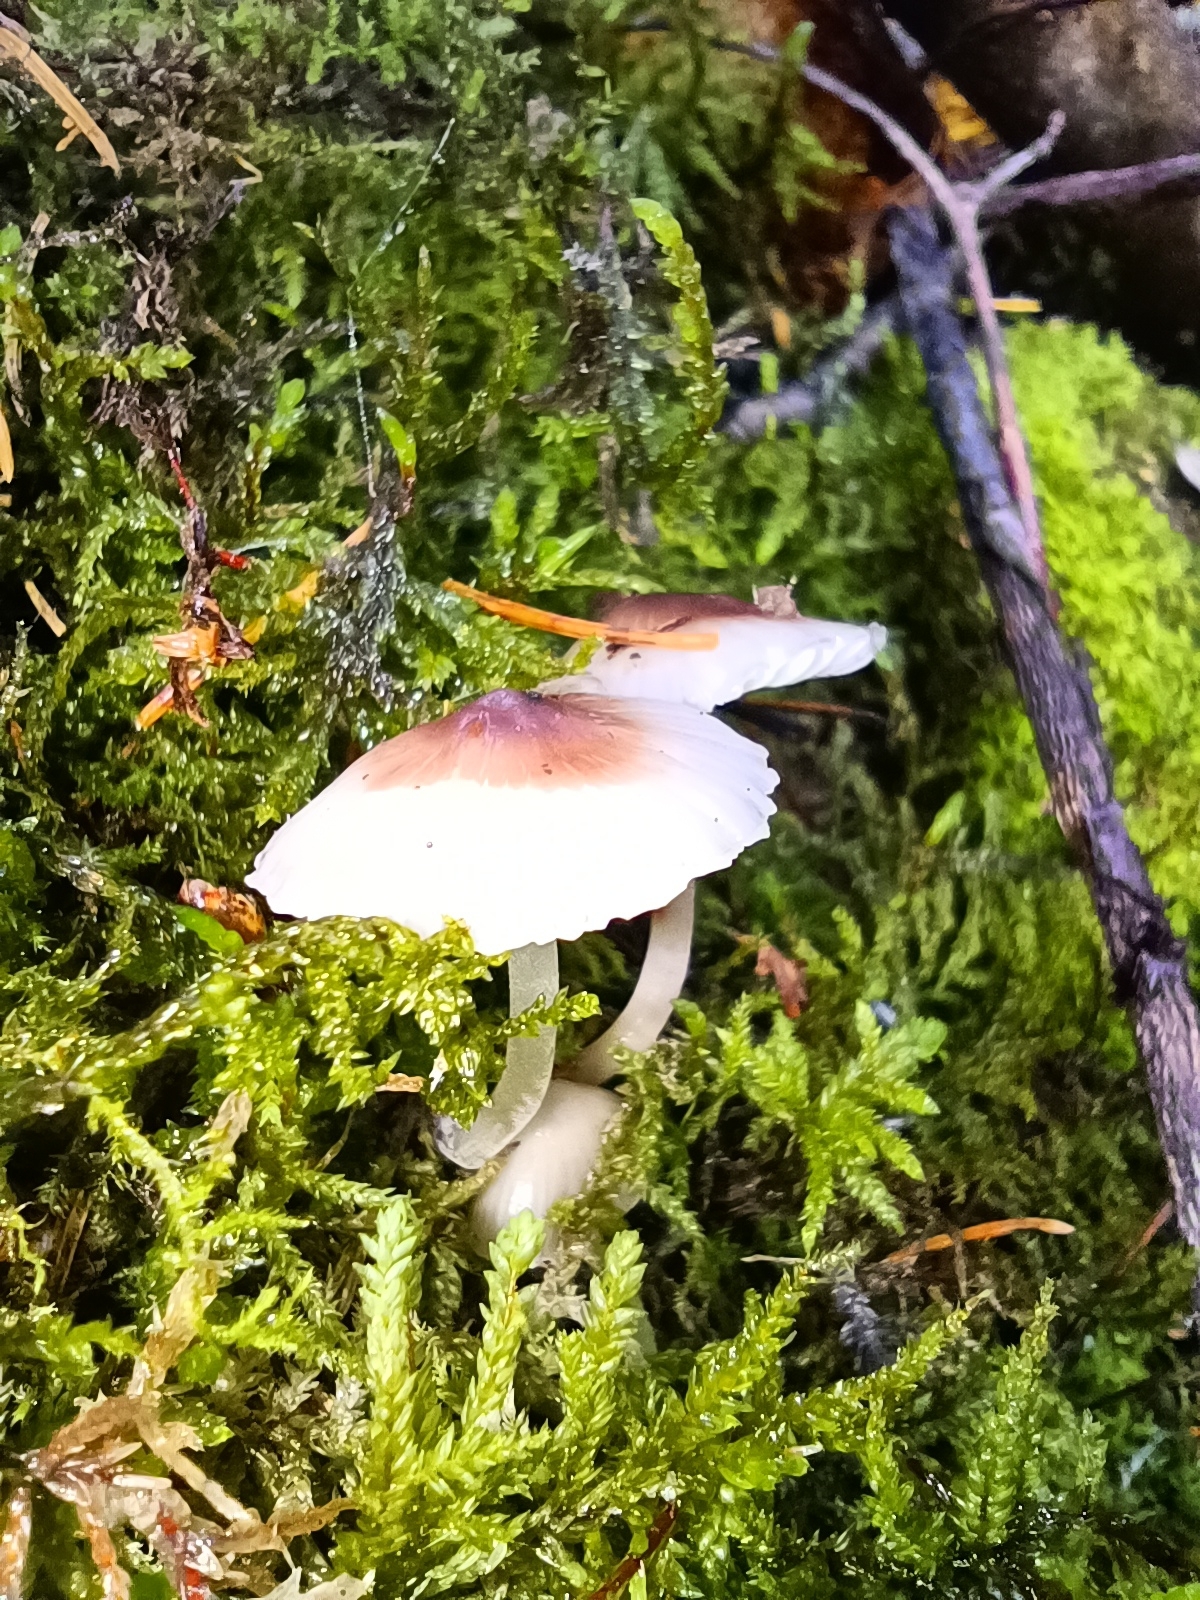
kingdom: Fungi
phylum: Basidiomycota
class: Agaricomycetes
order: Agaricales
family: Mycenaceae
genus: Mycena
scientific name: Mycena galericulata
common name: Bonnet mycena
